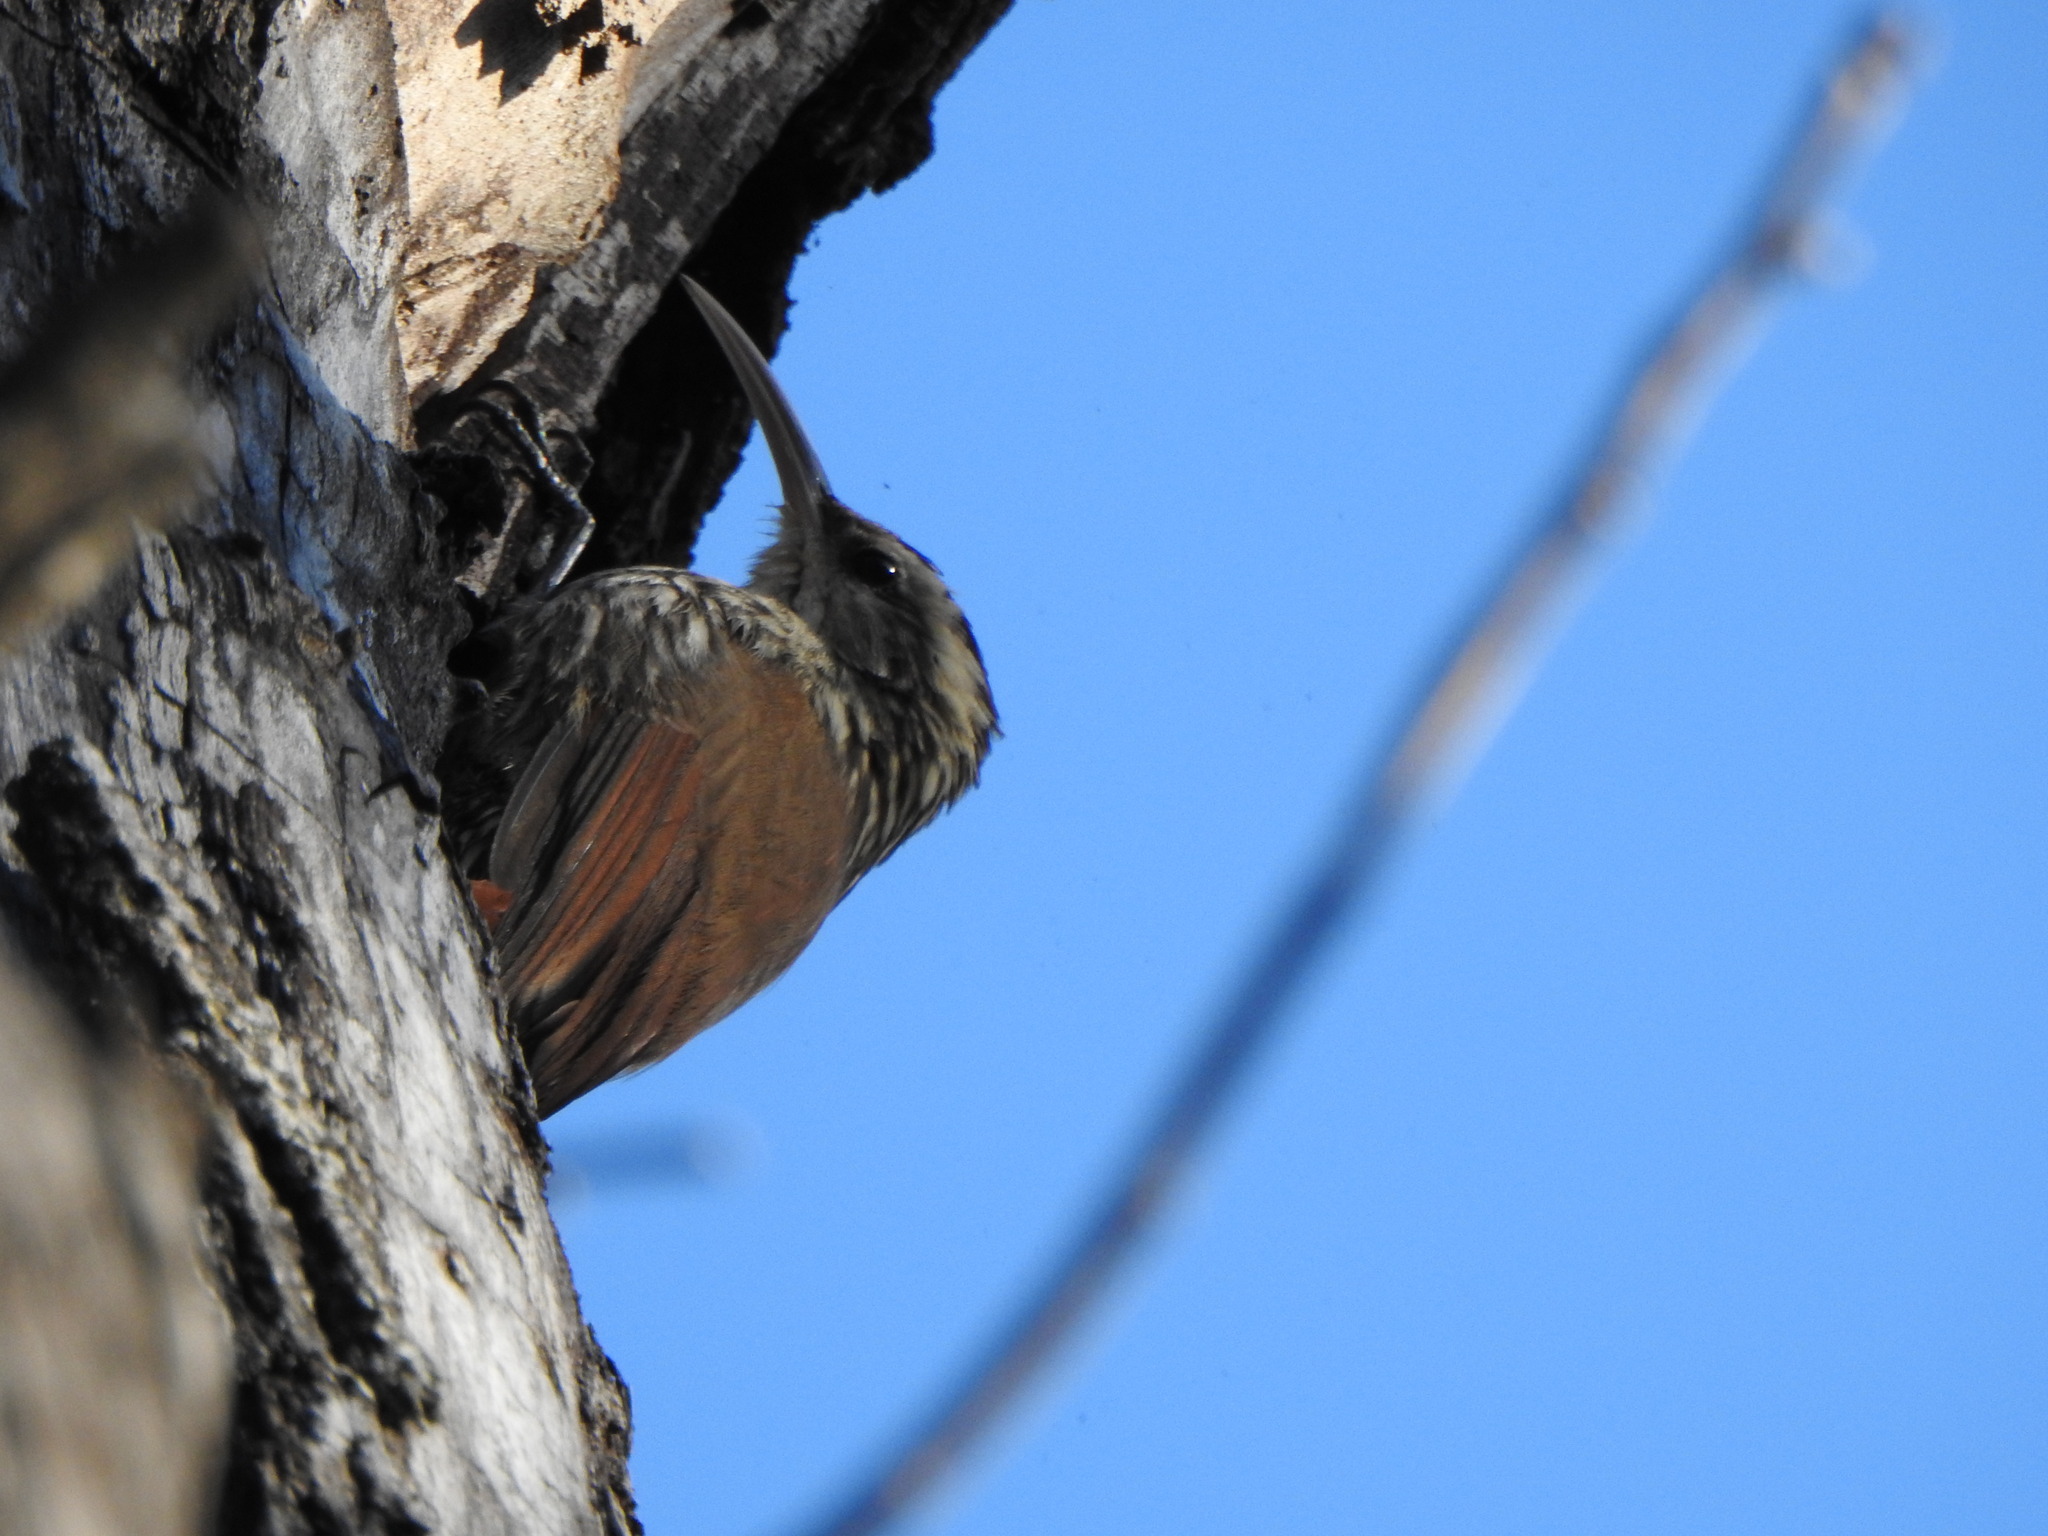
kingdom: Animalia
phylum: Chordata
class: Aves
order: Passeriformes
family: Furnariidae
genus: Lepidocolaptes
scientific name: Lepidocolaptes angustirostris
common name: Narrow-billed woodcreeper
